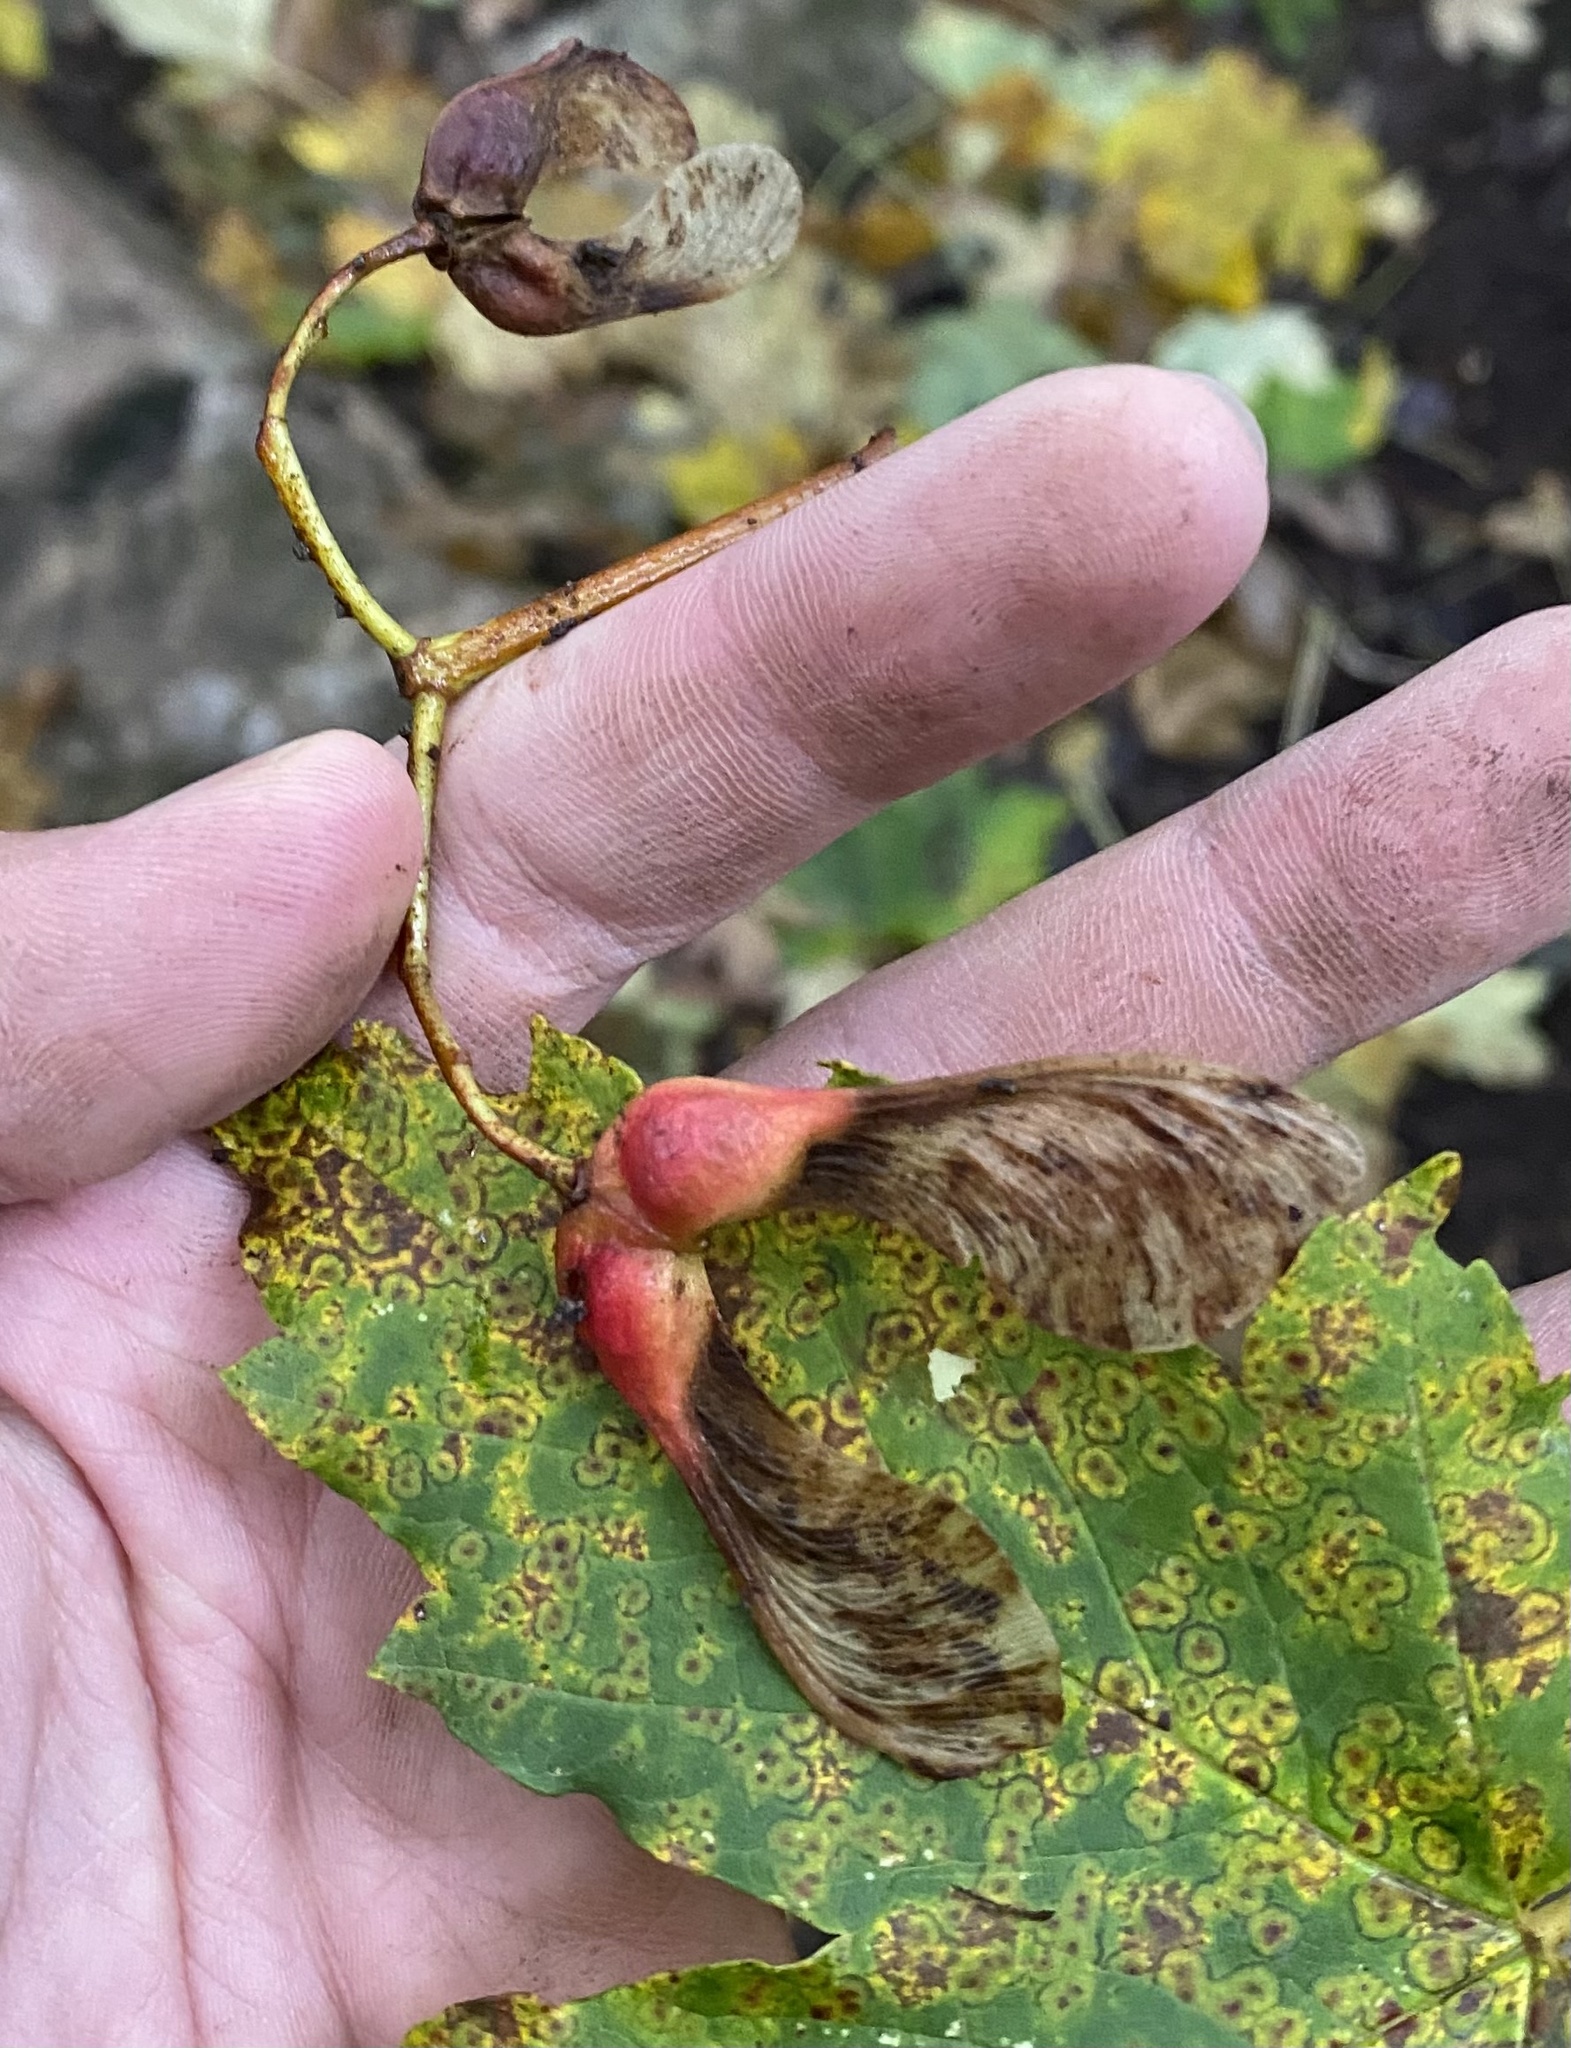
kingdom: Plantae
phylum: Tracheophyta
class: Magnoliopsida
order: Sapindales
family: Sapindaceae
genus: Acer
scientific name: Acer pseudoplatanus
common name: Sycamore
